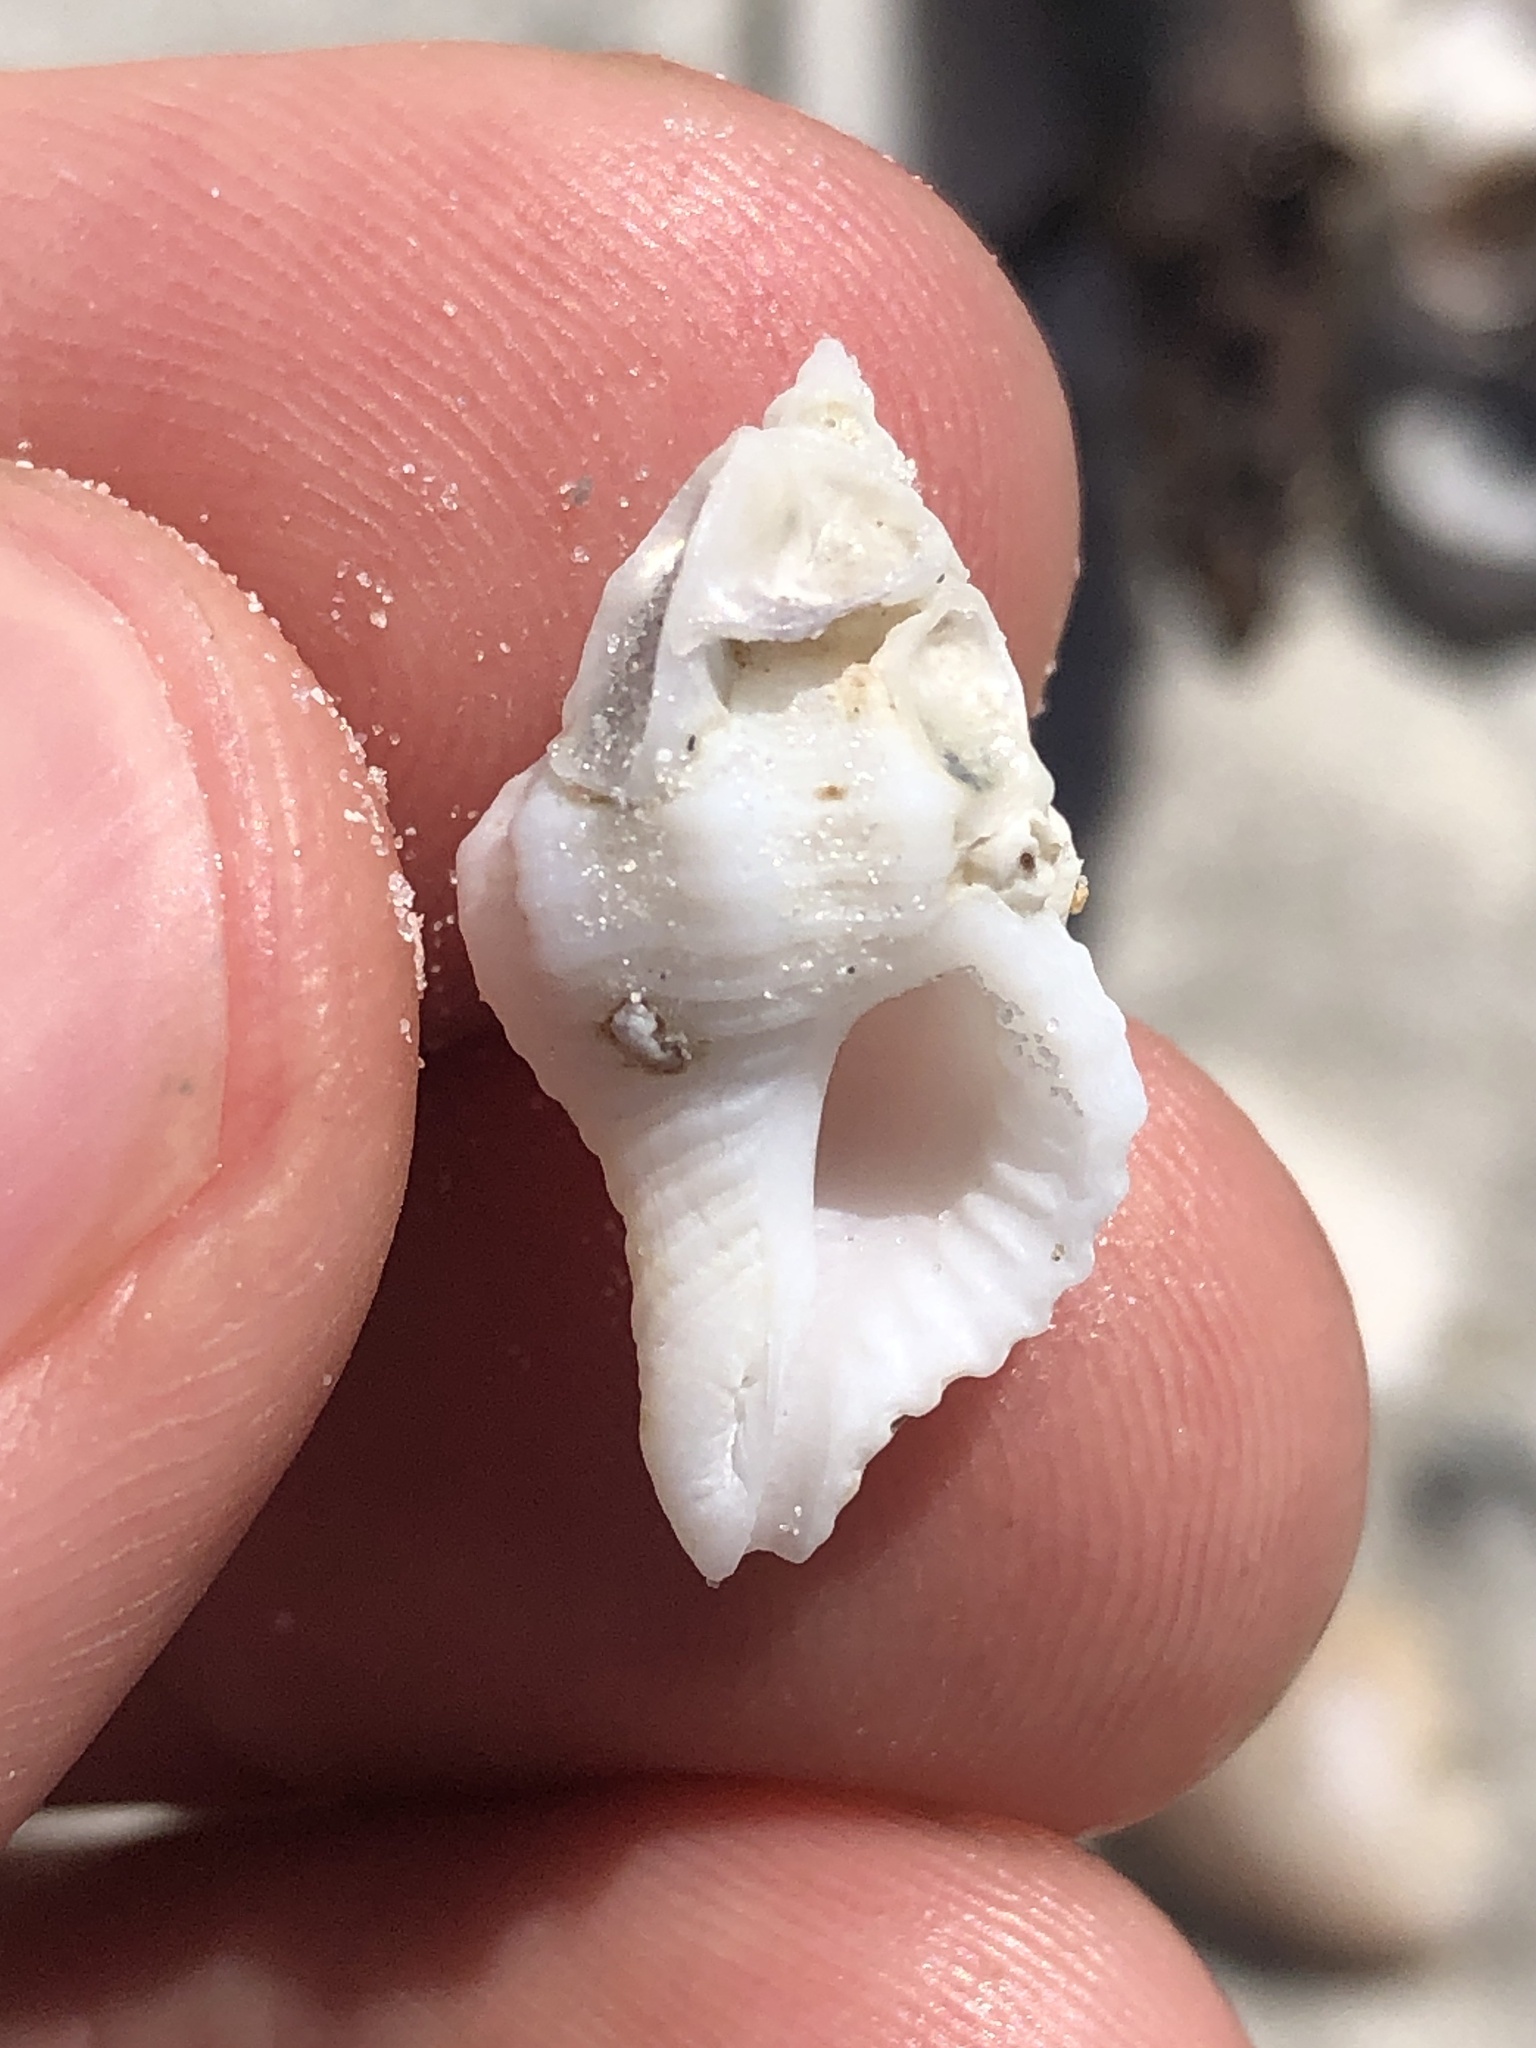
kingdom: Animalia
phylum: Mollusca
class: Gastropoda
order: Neogastropoda
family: Muricidae
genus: Vokesinotus
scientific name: Vokesinotus perrugatus
